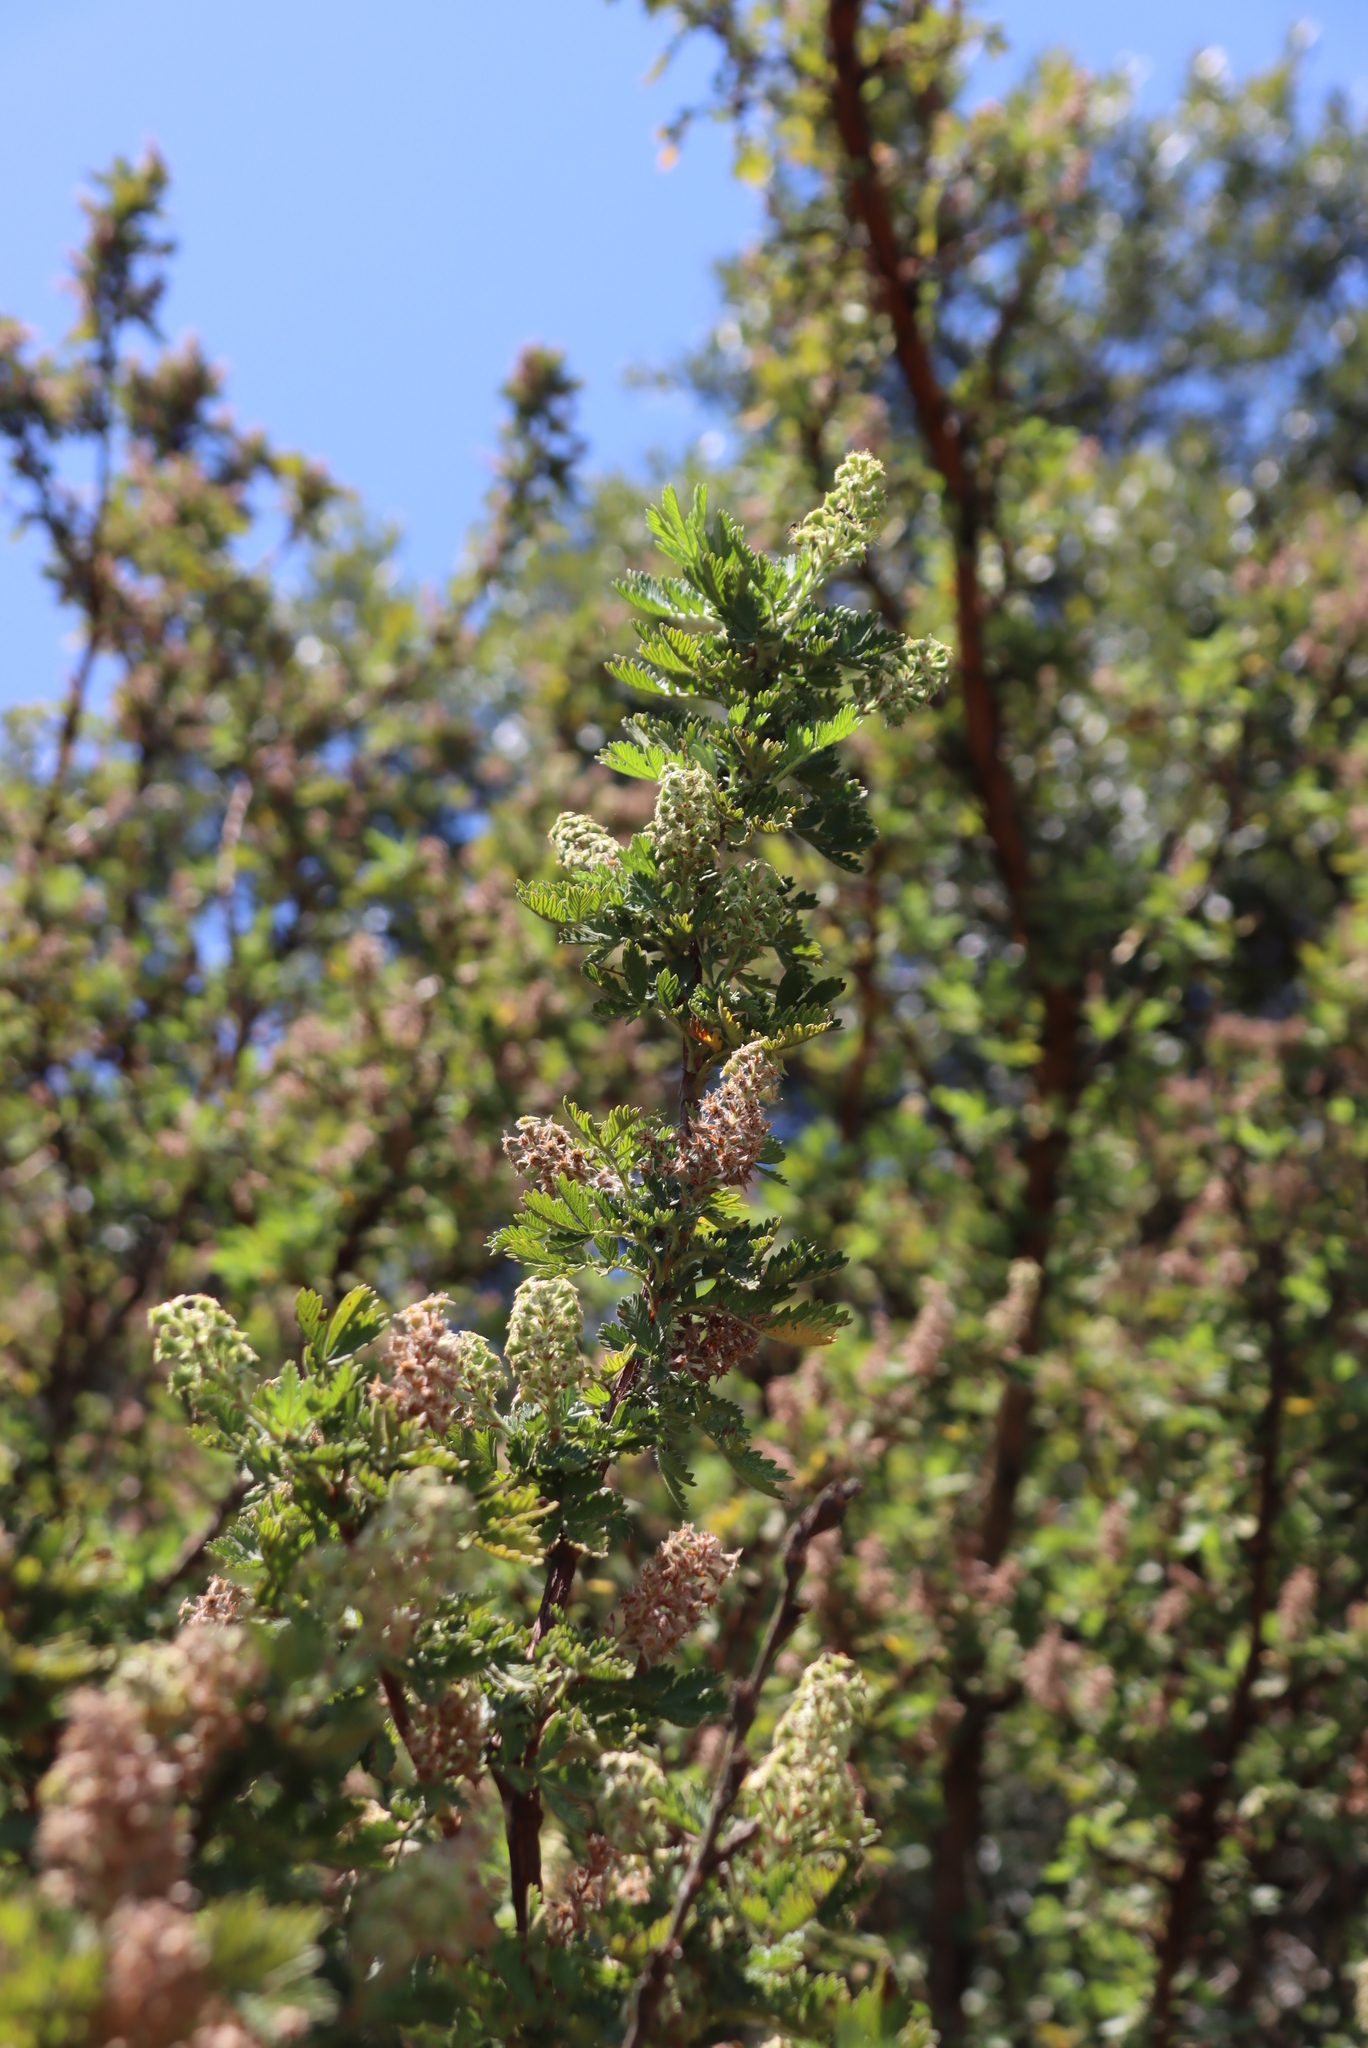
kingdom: Plantae
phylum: Tracheophyta
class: Magnoliopsida
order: Rosales
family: Rosaceae
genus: Leucosidea
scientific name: Leucosidea sericea
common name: Oldwood
